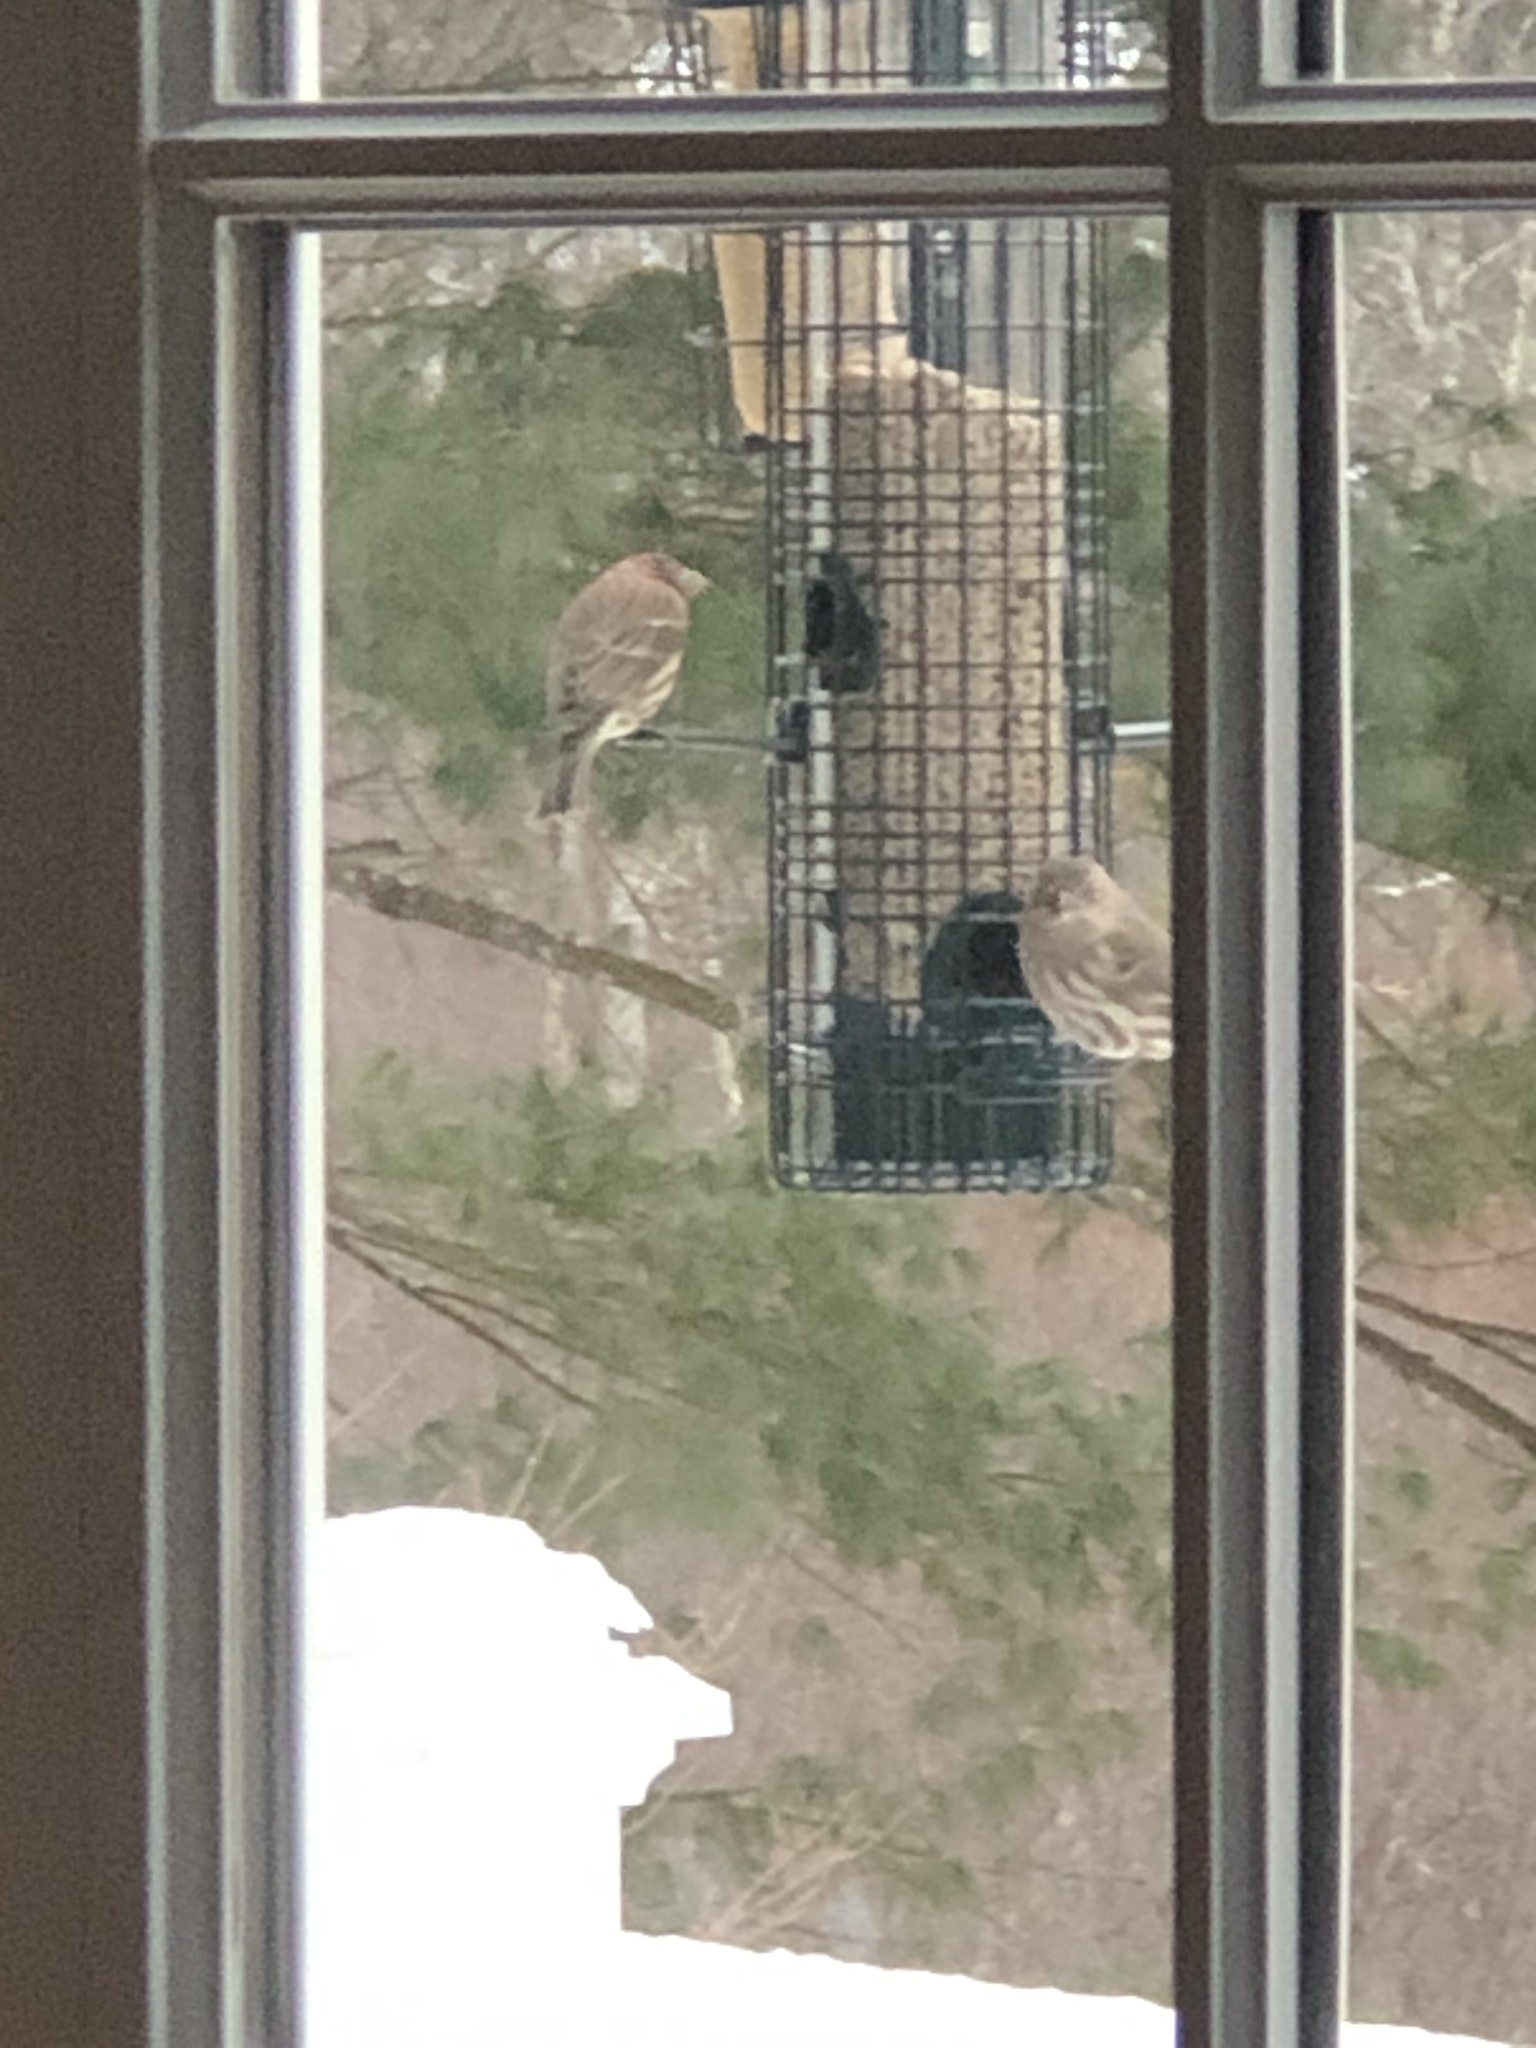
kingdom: Animalia
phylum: Chordata
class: Aves
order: Passeriformes
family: Fringillidae
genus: Haemorhous
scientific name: Haemorhous mexicanus
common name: House finch
